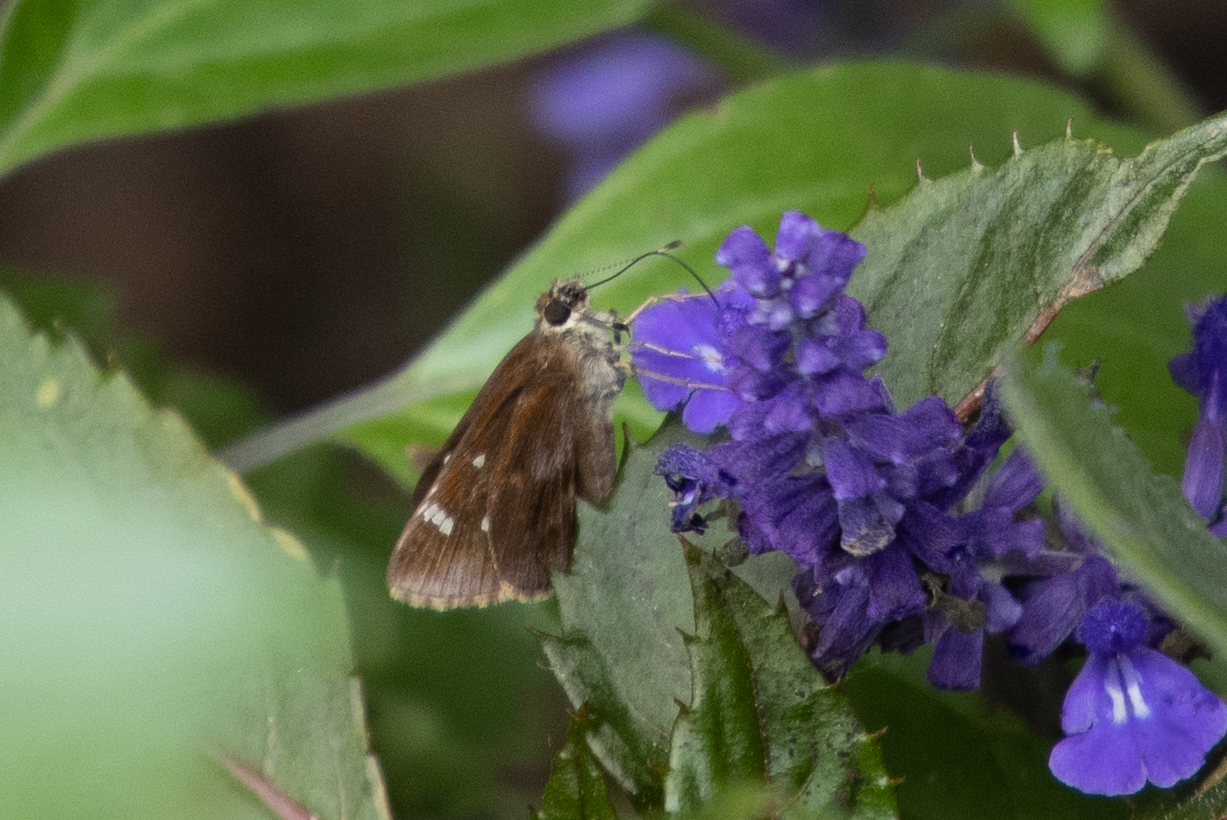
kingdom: Animalia
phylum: Arthropoda
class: Insecta
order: Lepidoptera
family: Hesperiidae
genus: Lerema
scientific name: Lerema accius
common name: Clouded skipper
